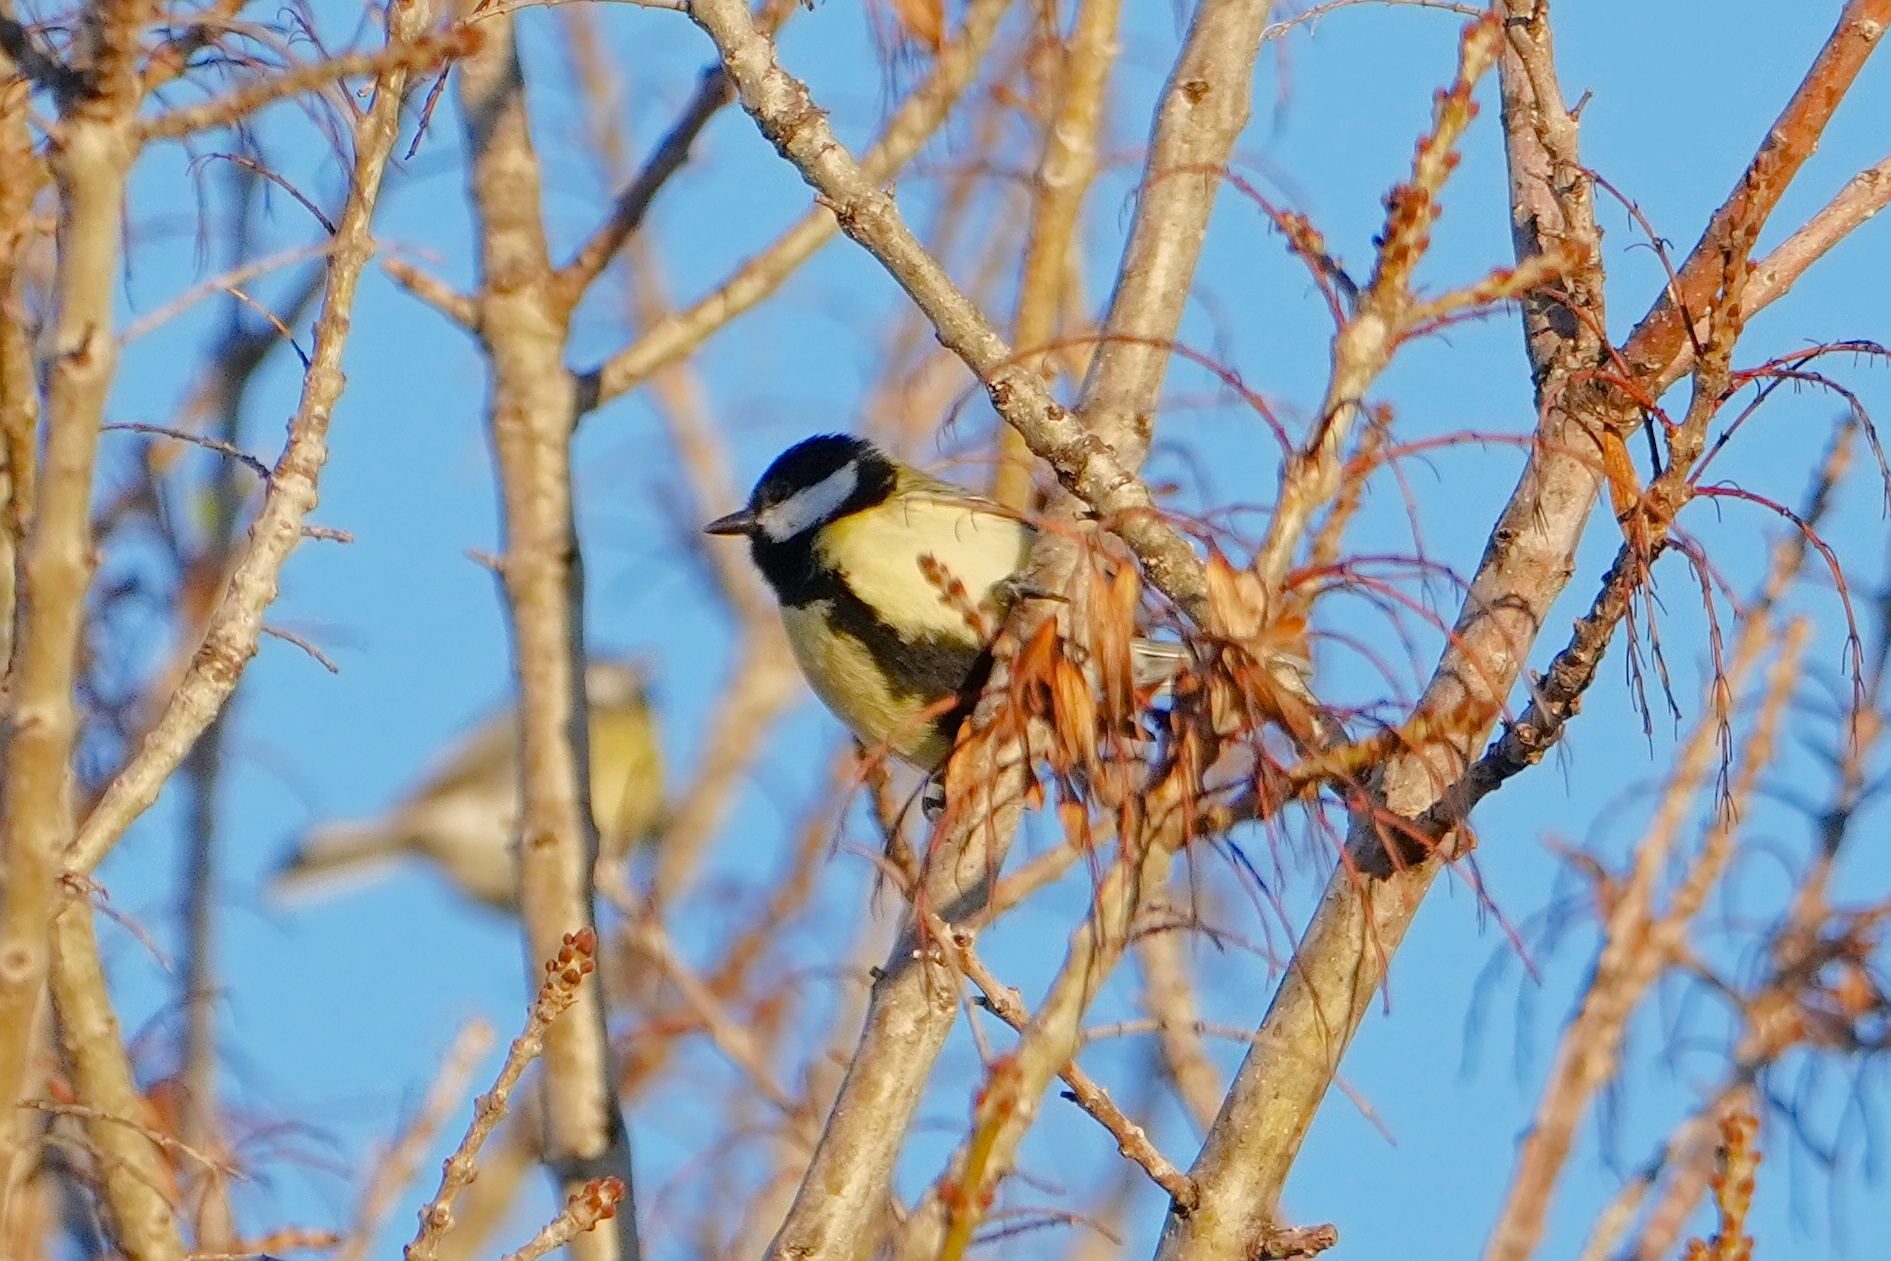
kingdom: Animalia
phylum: Chordata
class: Aves
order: Passeriformes
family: Paridae
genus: Parus
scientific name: Parus major
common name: Great tit
